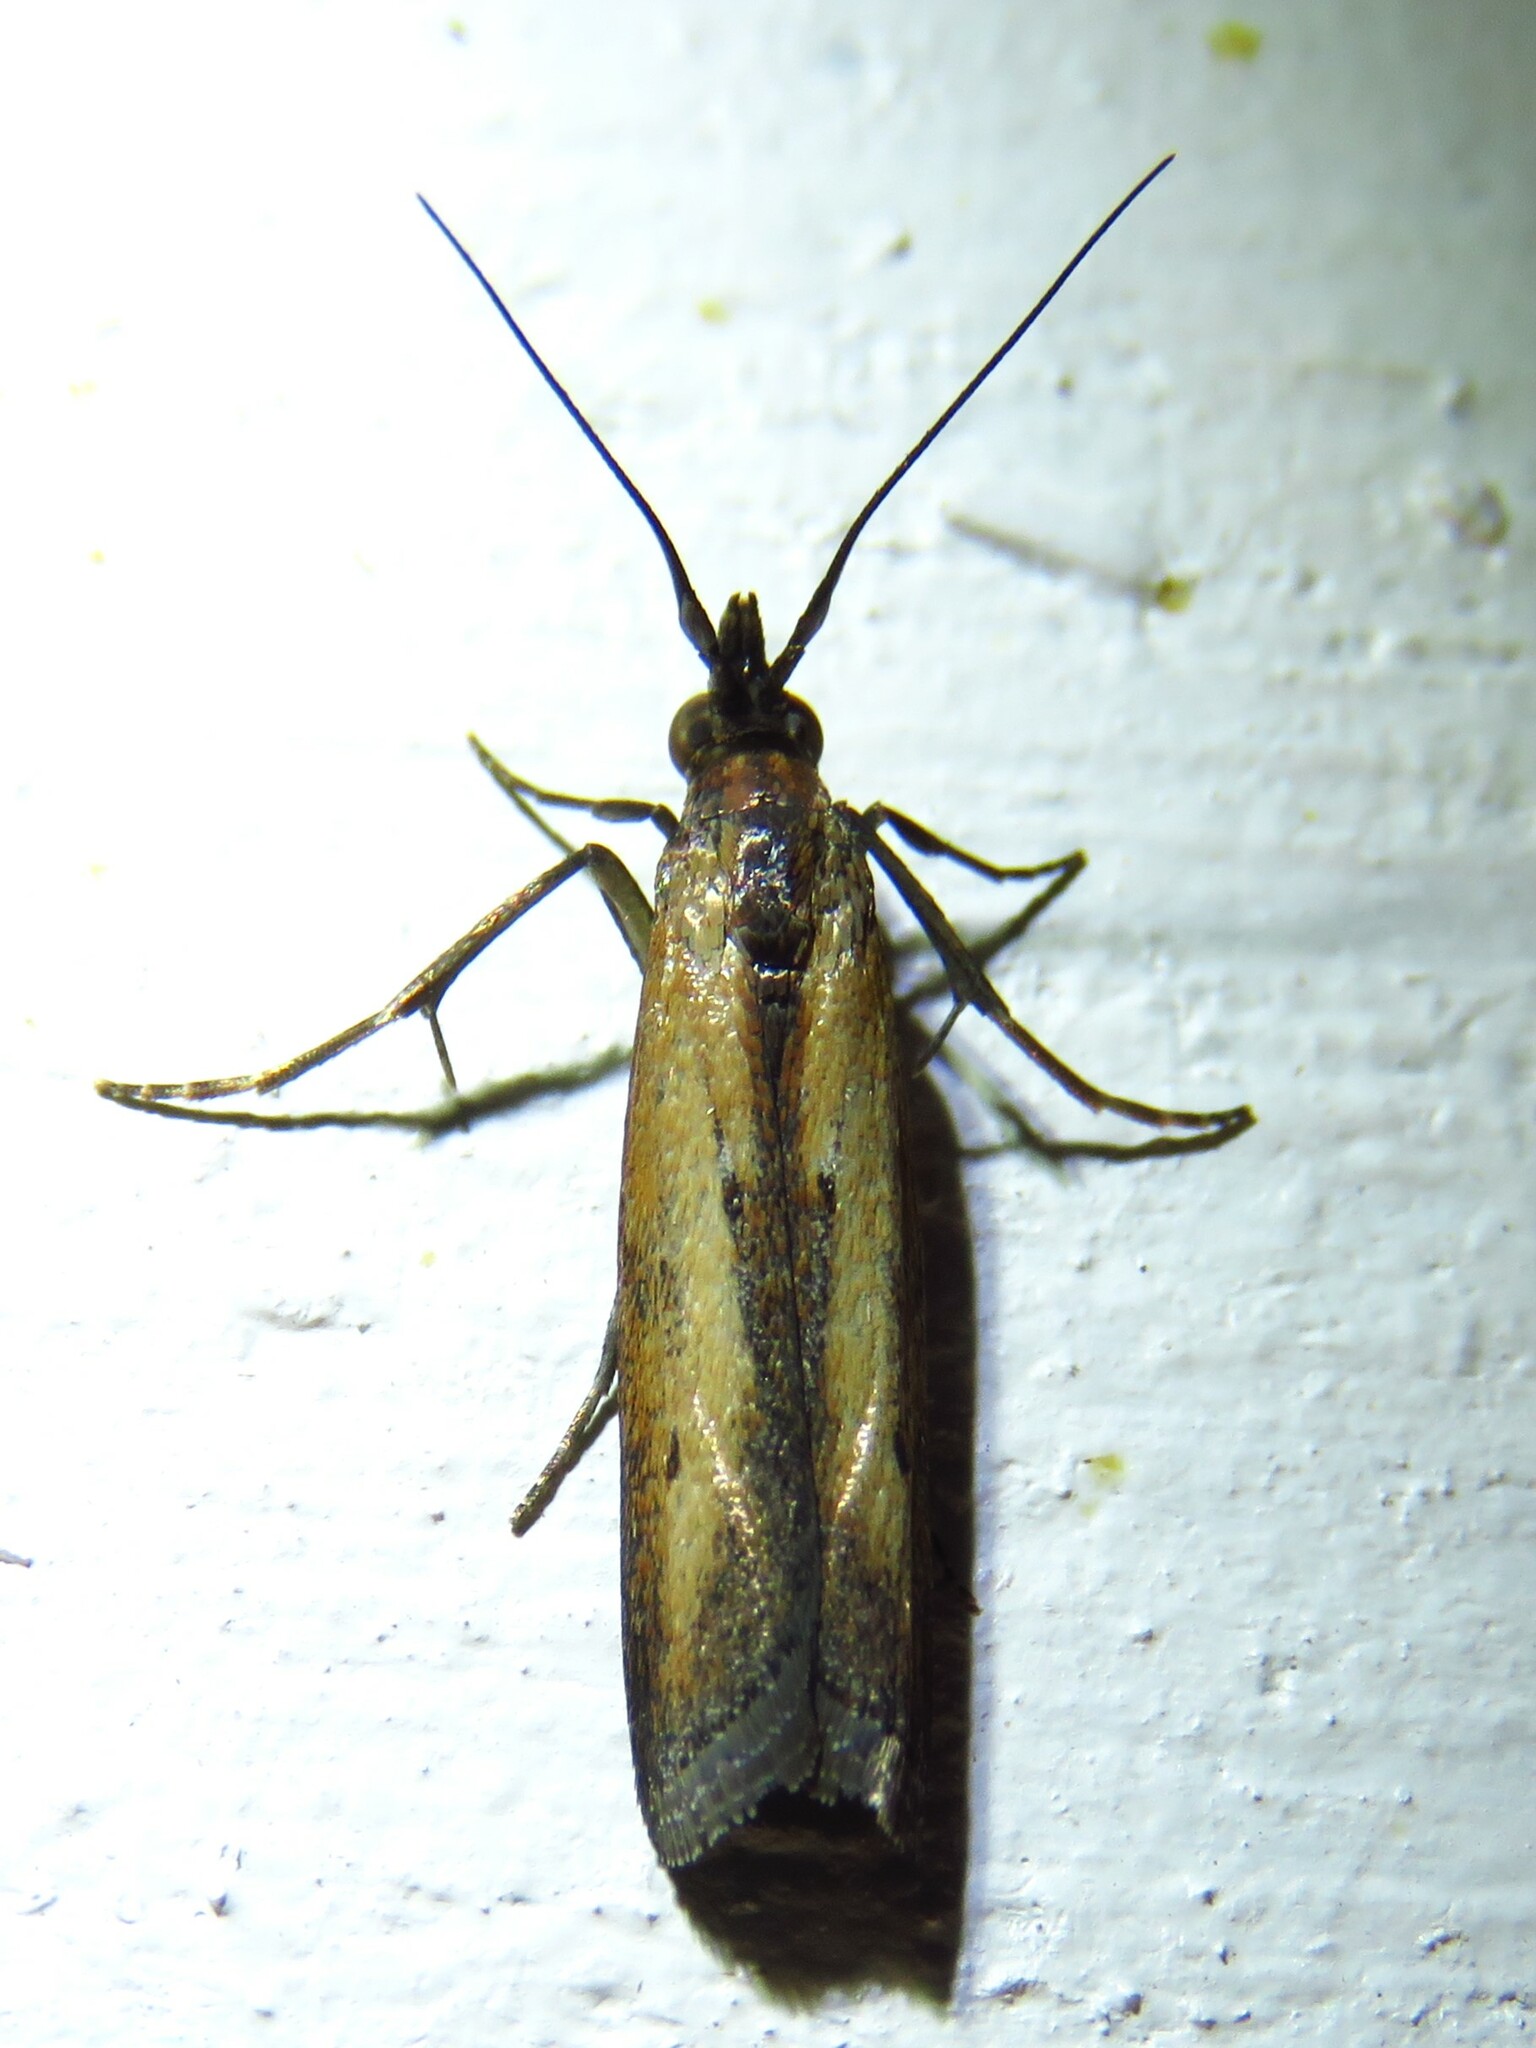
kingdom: Animalia
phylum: Arthropoda
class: Insecta
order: Lepidoptera
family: Pyralidae
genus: Elasmopalpus
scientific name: Elasmopalpus lignosella
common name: Lesser cornstalk borer
